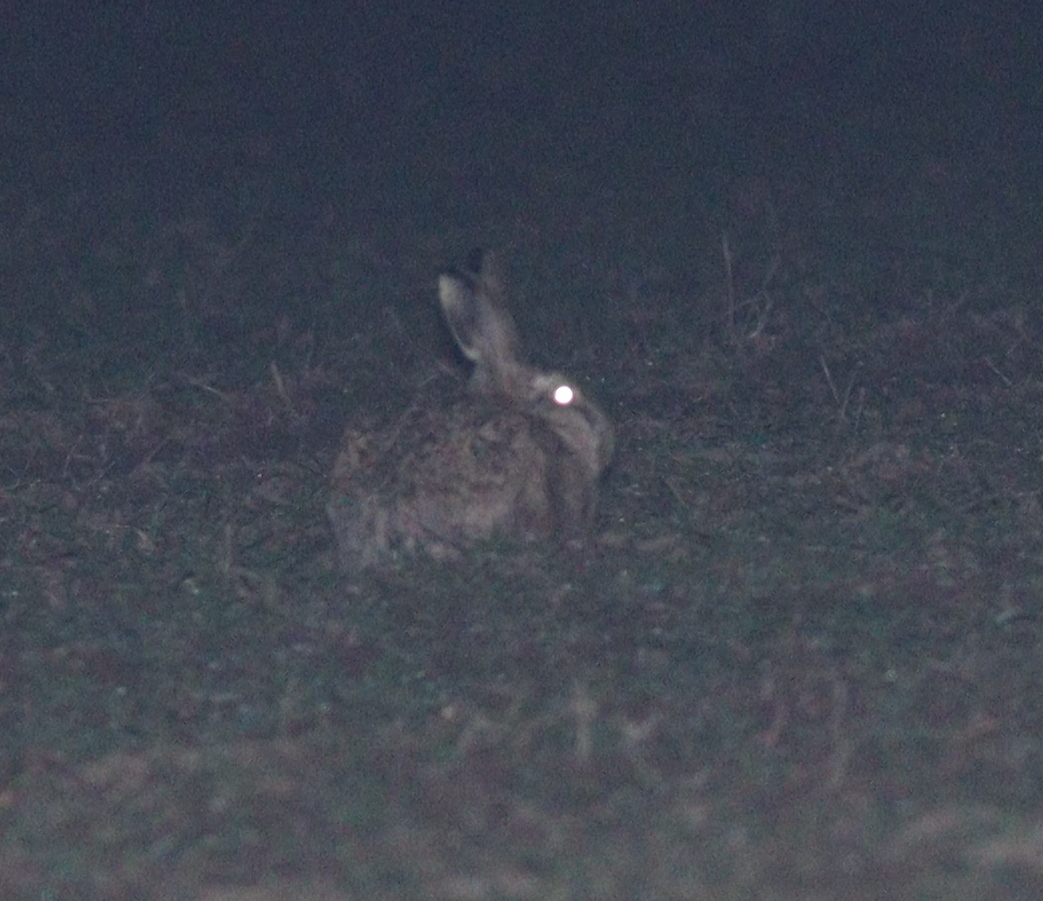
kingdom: Animalia
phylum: Chordata
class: Mammalia
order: Lagomorpha
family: Leporidae
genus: Lepus
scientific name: Lepus europaeus
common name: European hare
